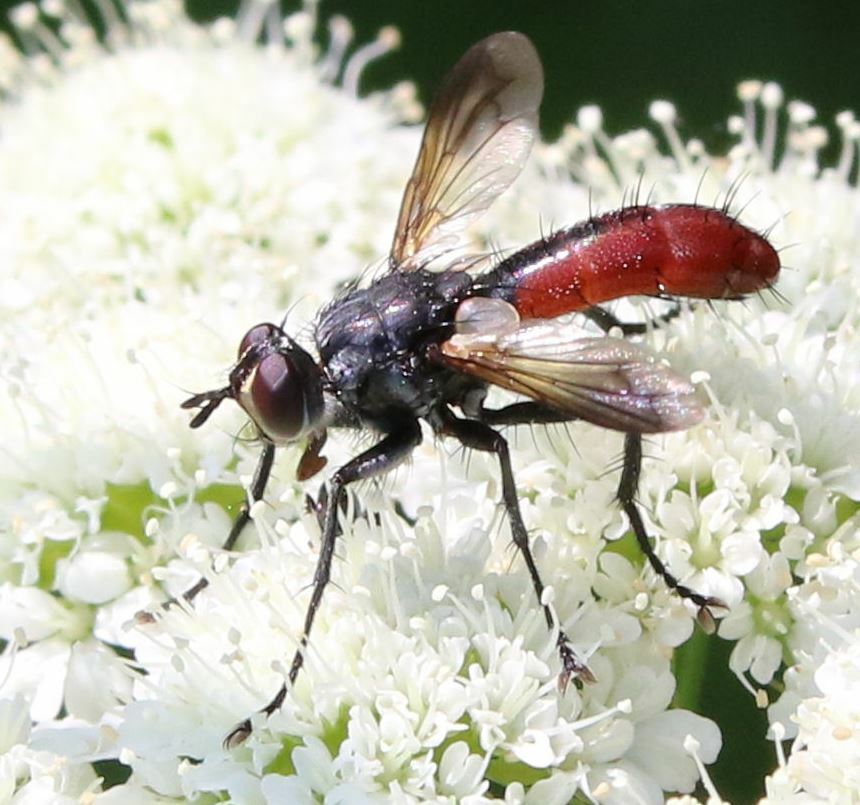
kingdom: Animalia
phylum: Arthropoda
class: Insecta
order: Diptera
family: Tachinidae
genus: Cylindromyia
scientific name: Cylindromyia bicolor
